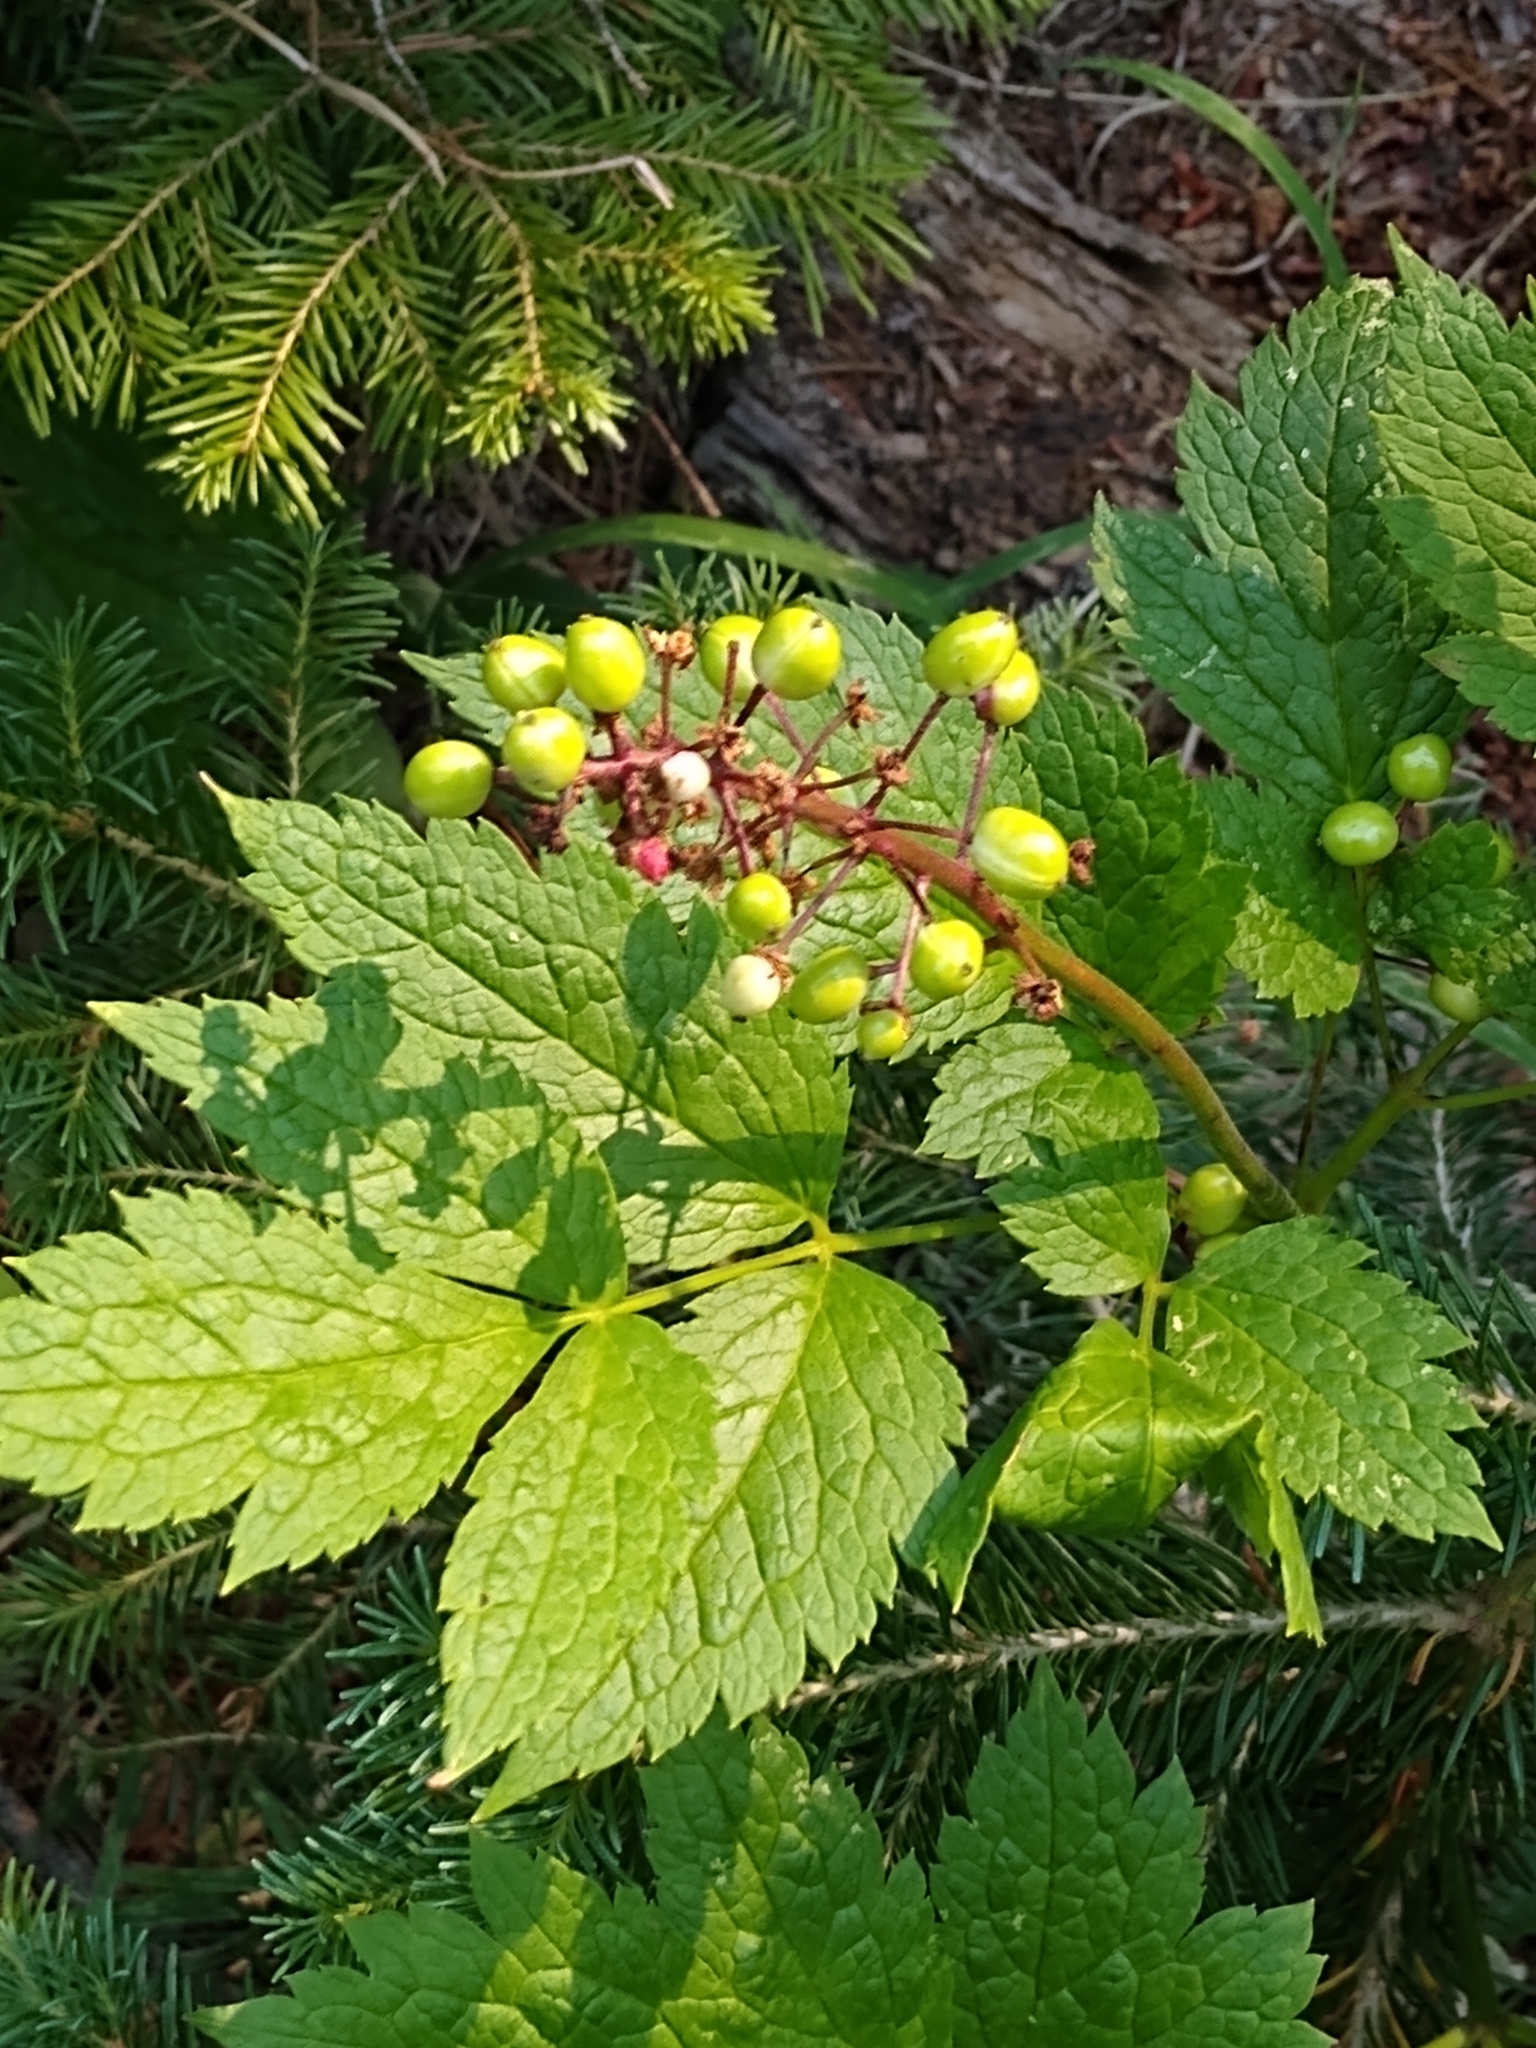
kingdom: Plantae
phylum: Tracheophyta
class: Magnoliopsida
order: Ranunculales
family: Ranunculaceae
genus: Actaea
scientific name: Actaea rubra
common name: Red baneberry
